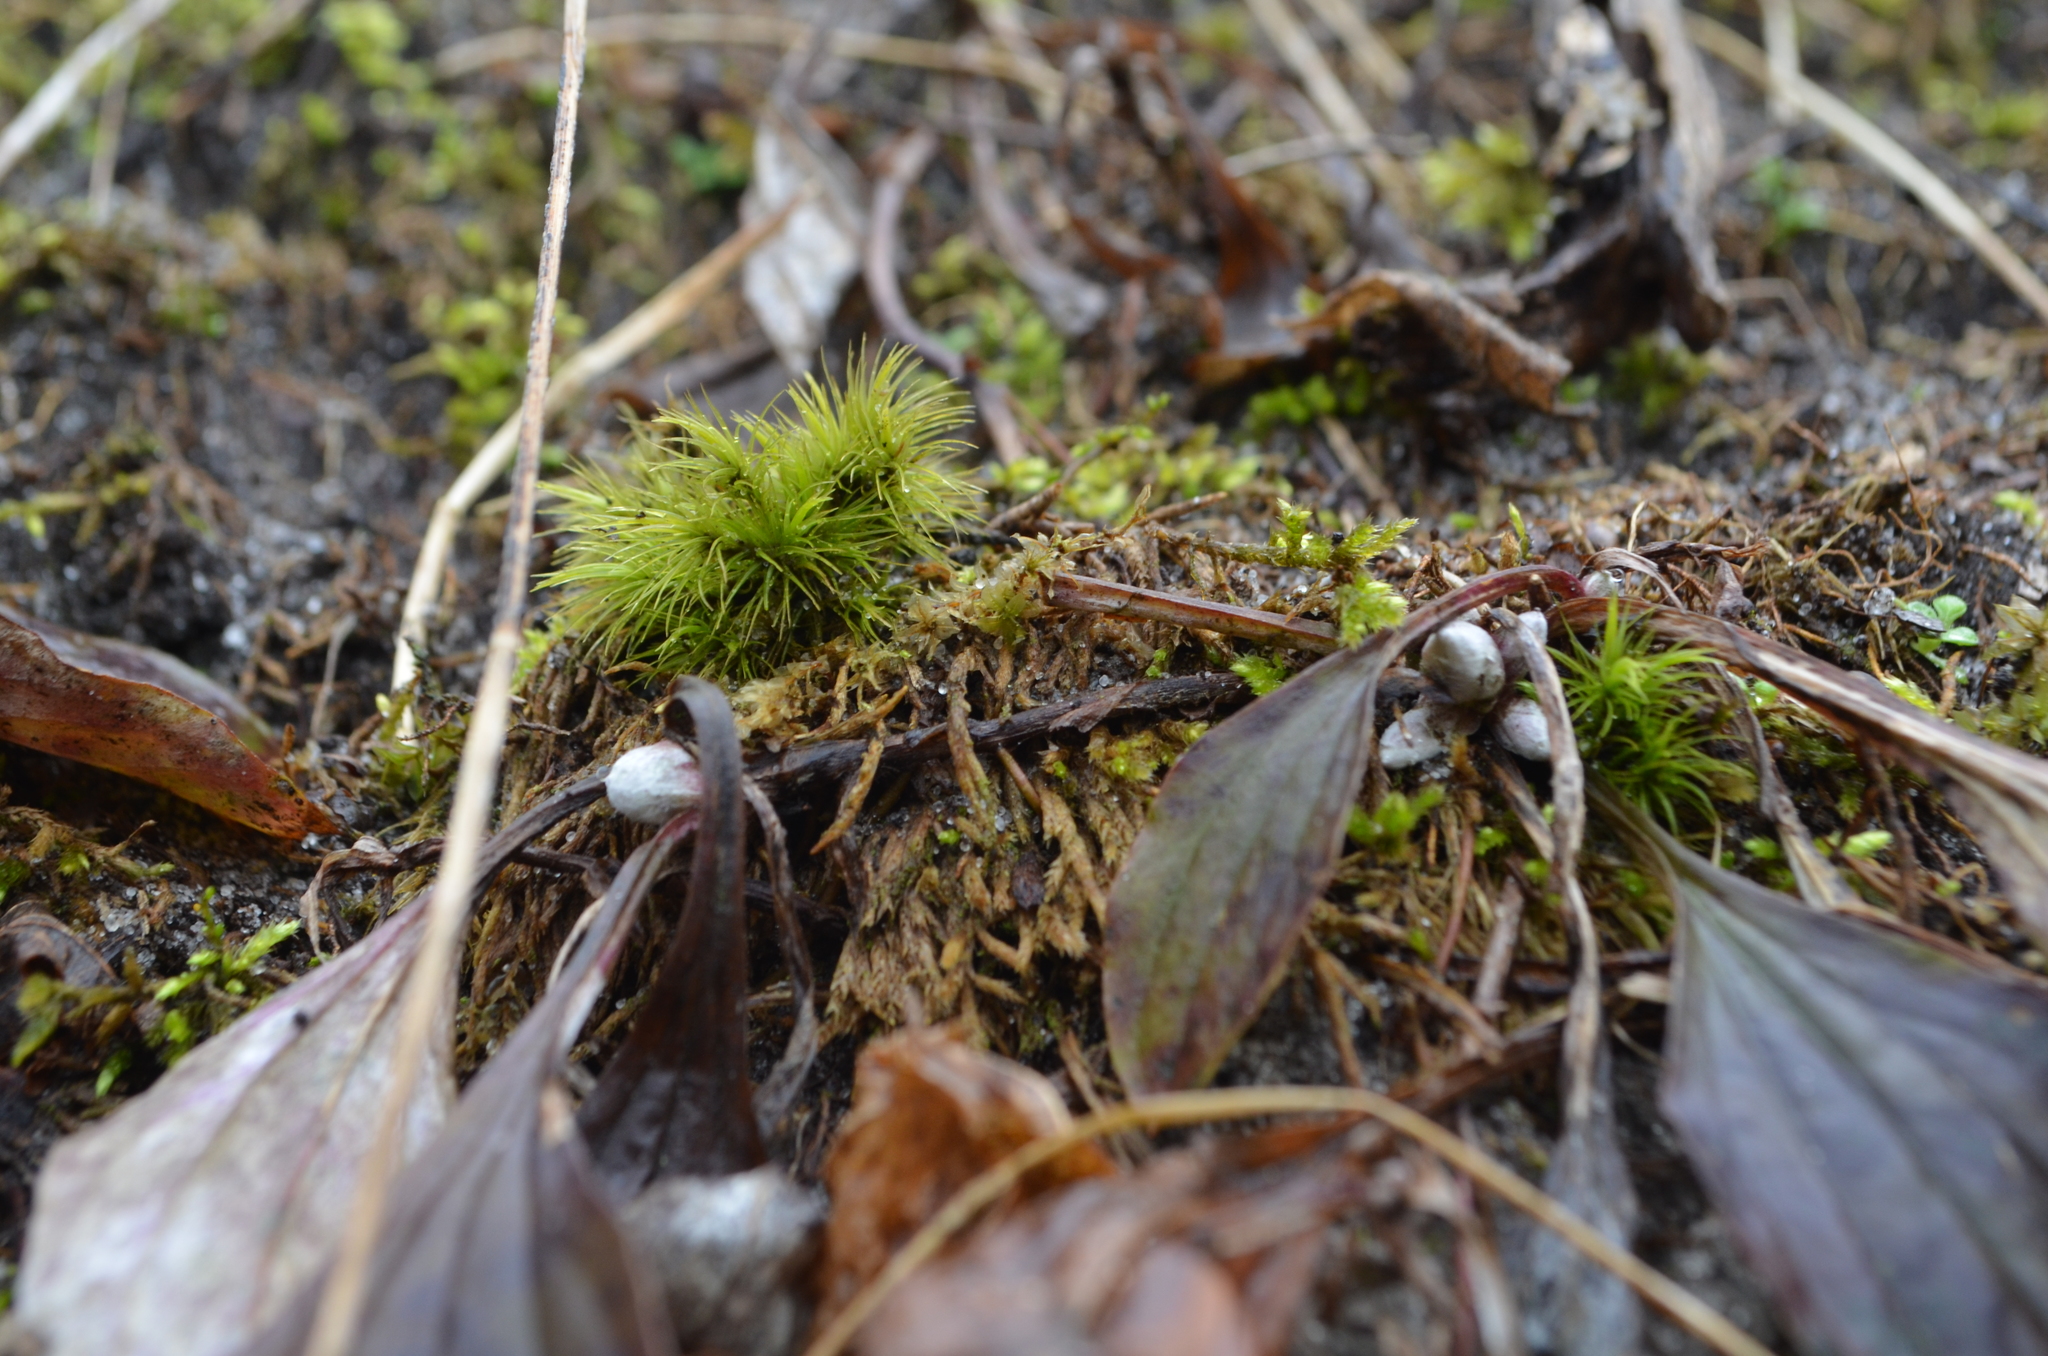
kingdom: Plantae
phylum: Tracheophyta
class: Magnoliopsida
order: Asterales
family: Asteraceae
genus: Antennaria
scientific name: Antennaria parlinii
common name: Parlin's pussytoes
